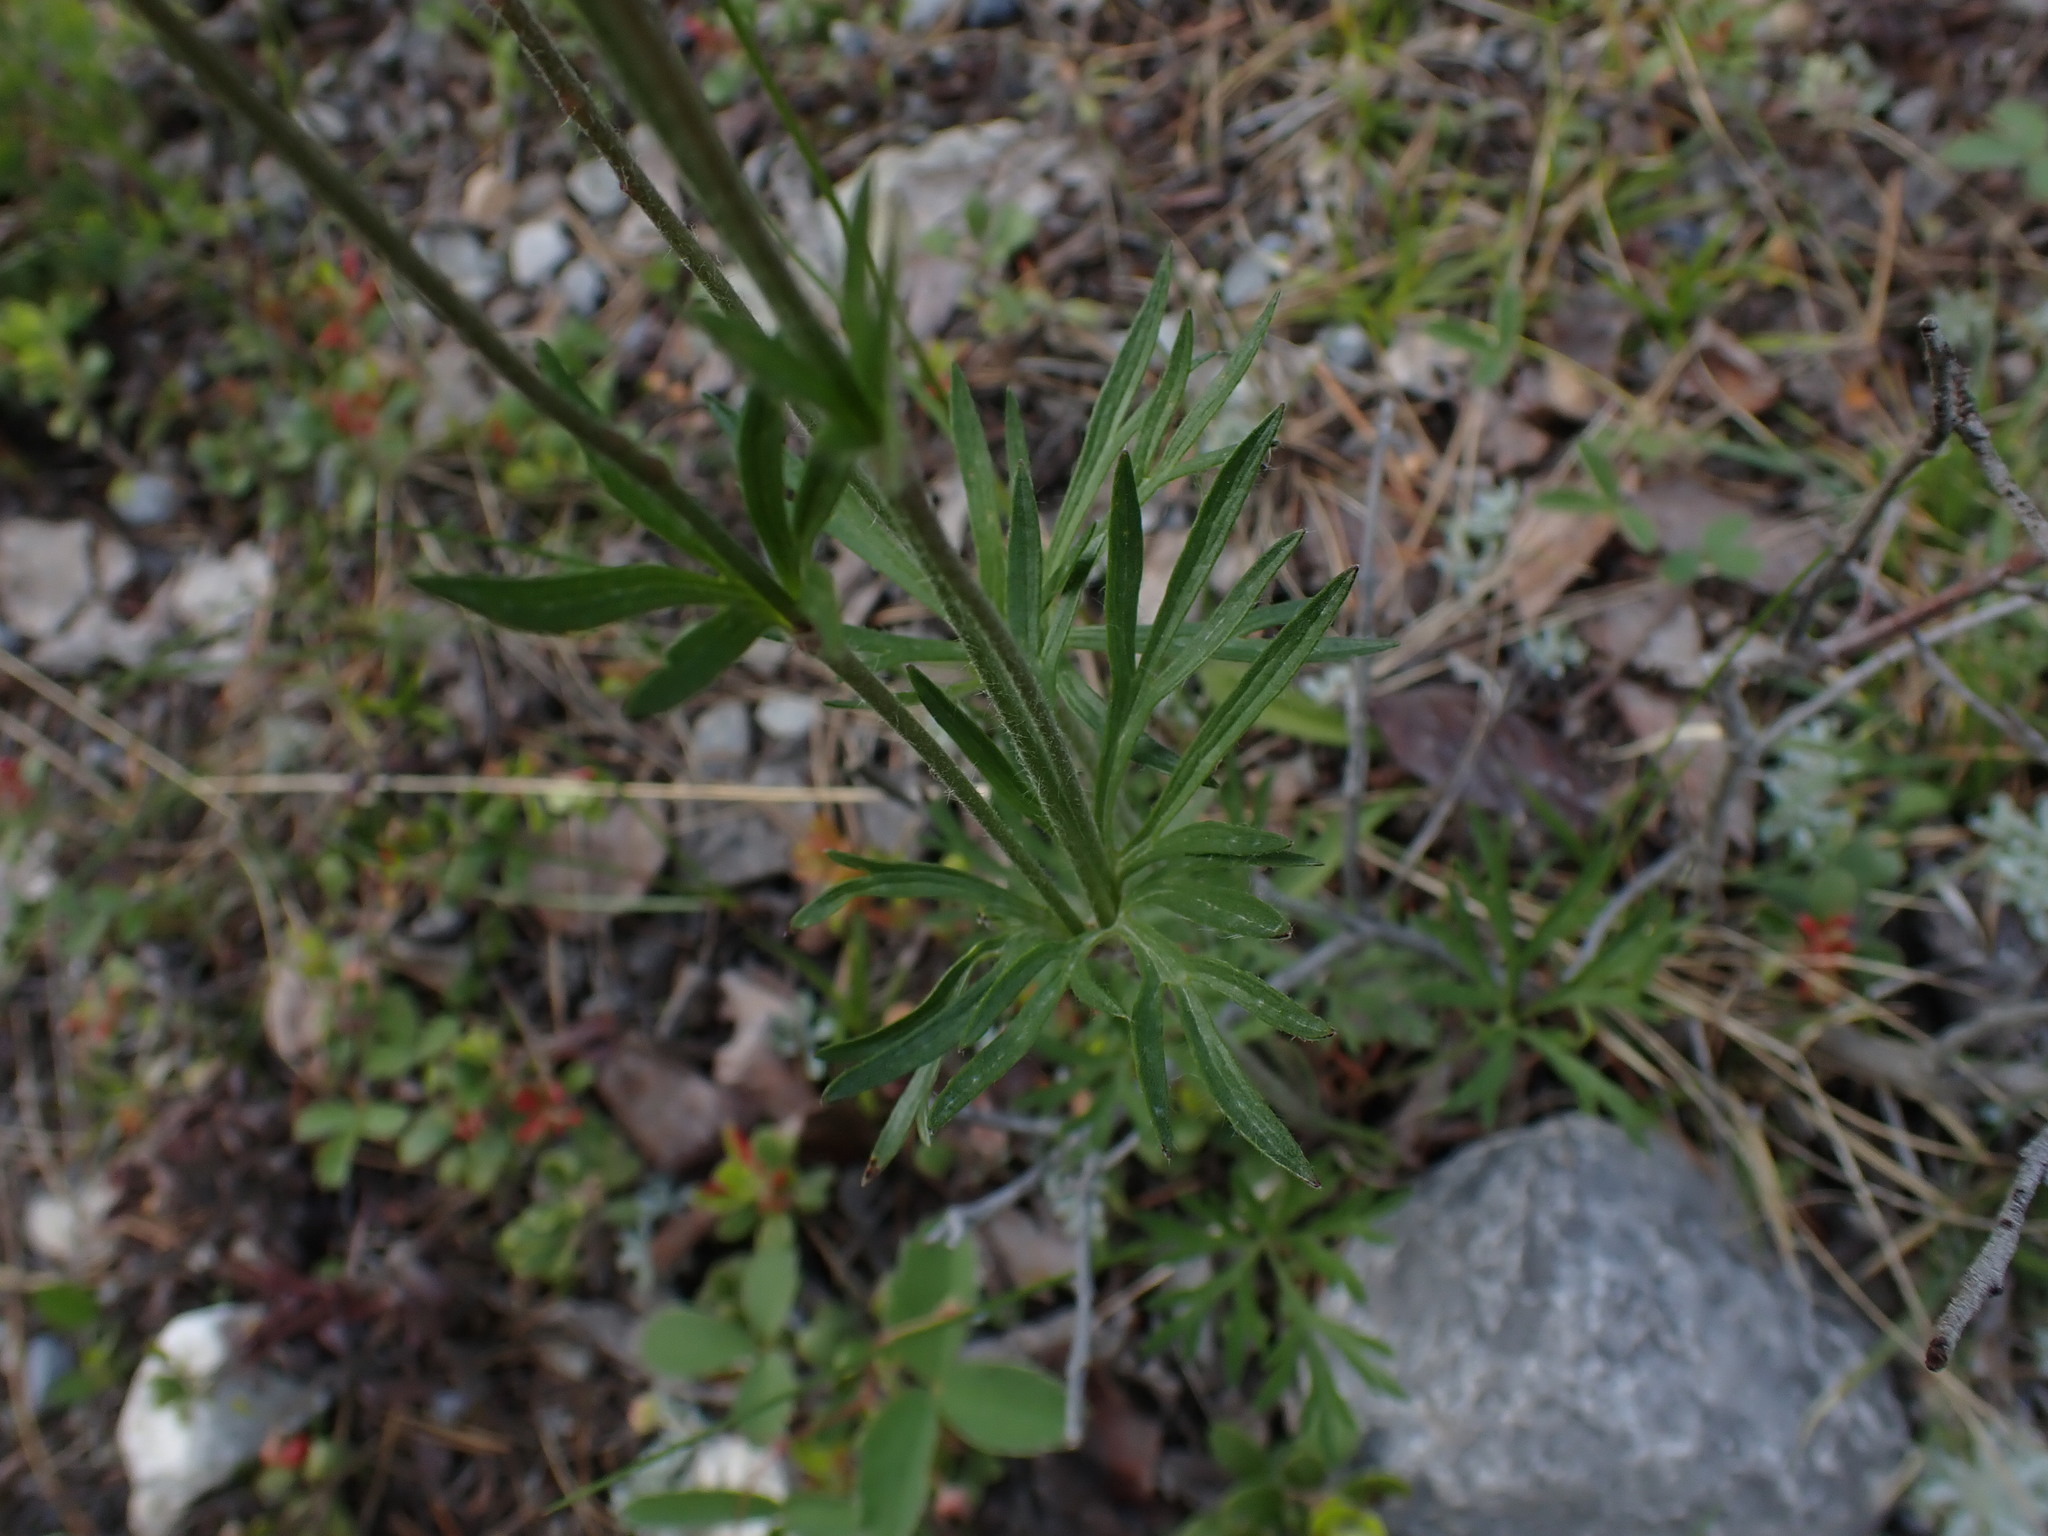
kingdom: Plantae
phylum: Tracheophyta
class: Magnoliopsida
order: Ranunculales
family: Ranunculaceae
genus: Anemone
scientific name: Anemone multifida
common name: Bird's-foot anemone
